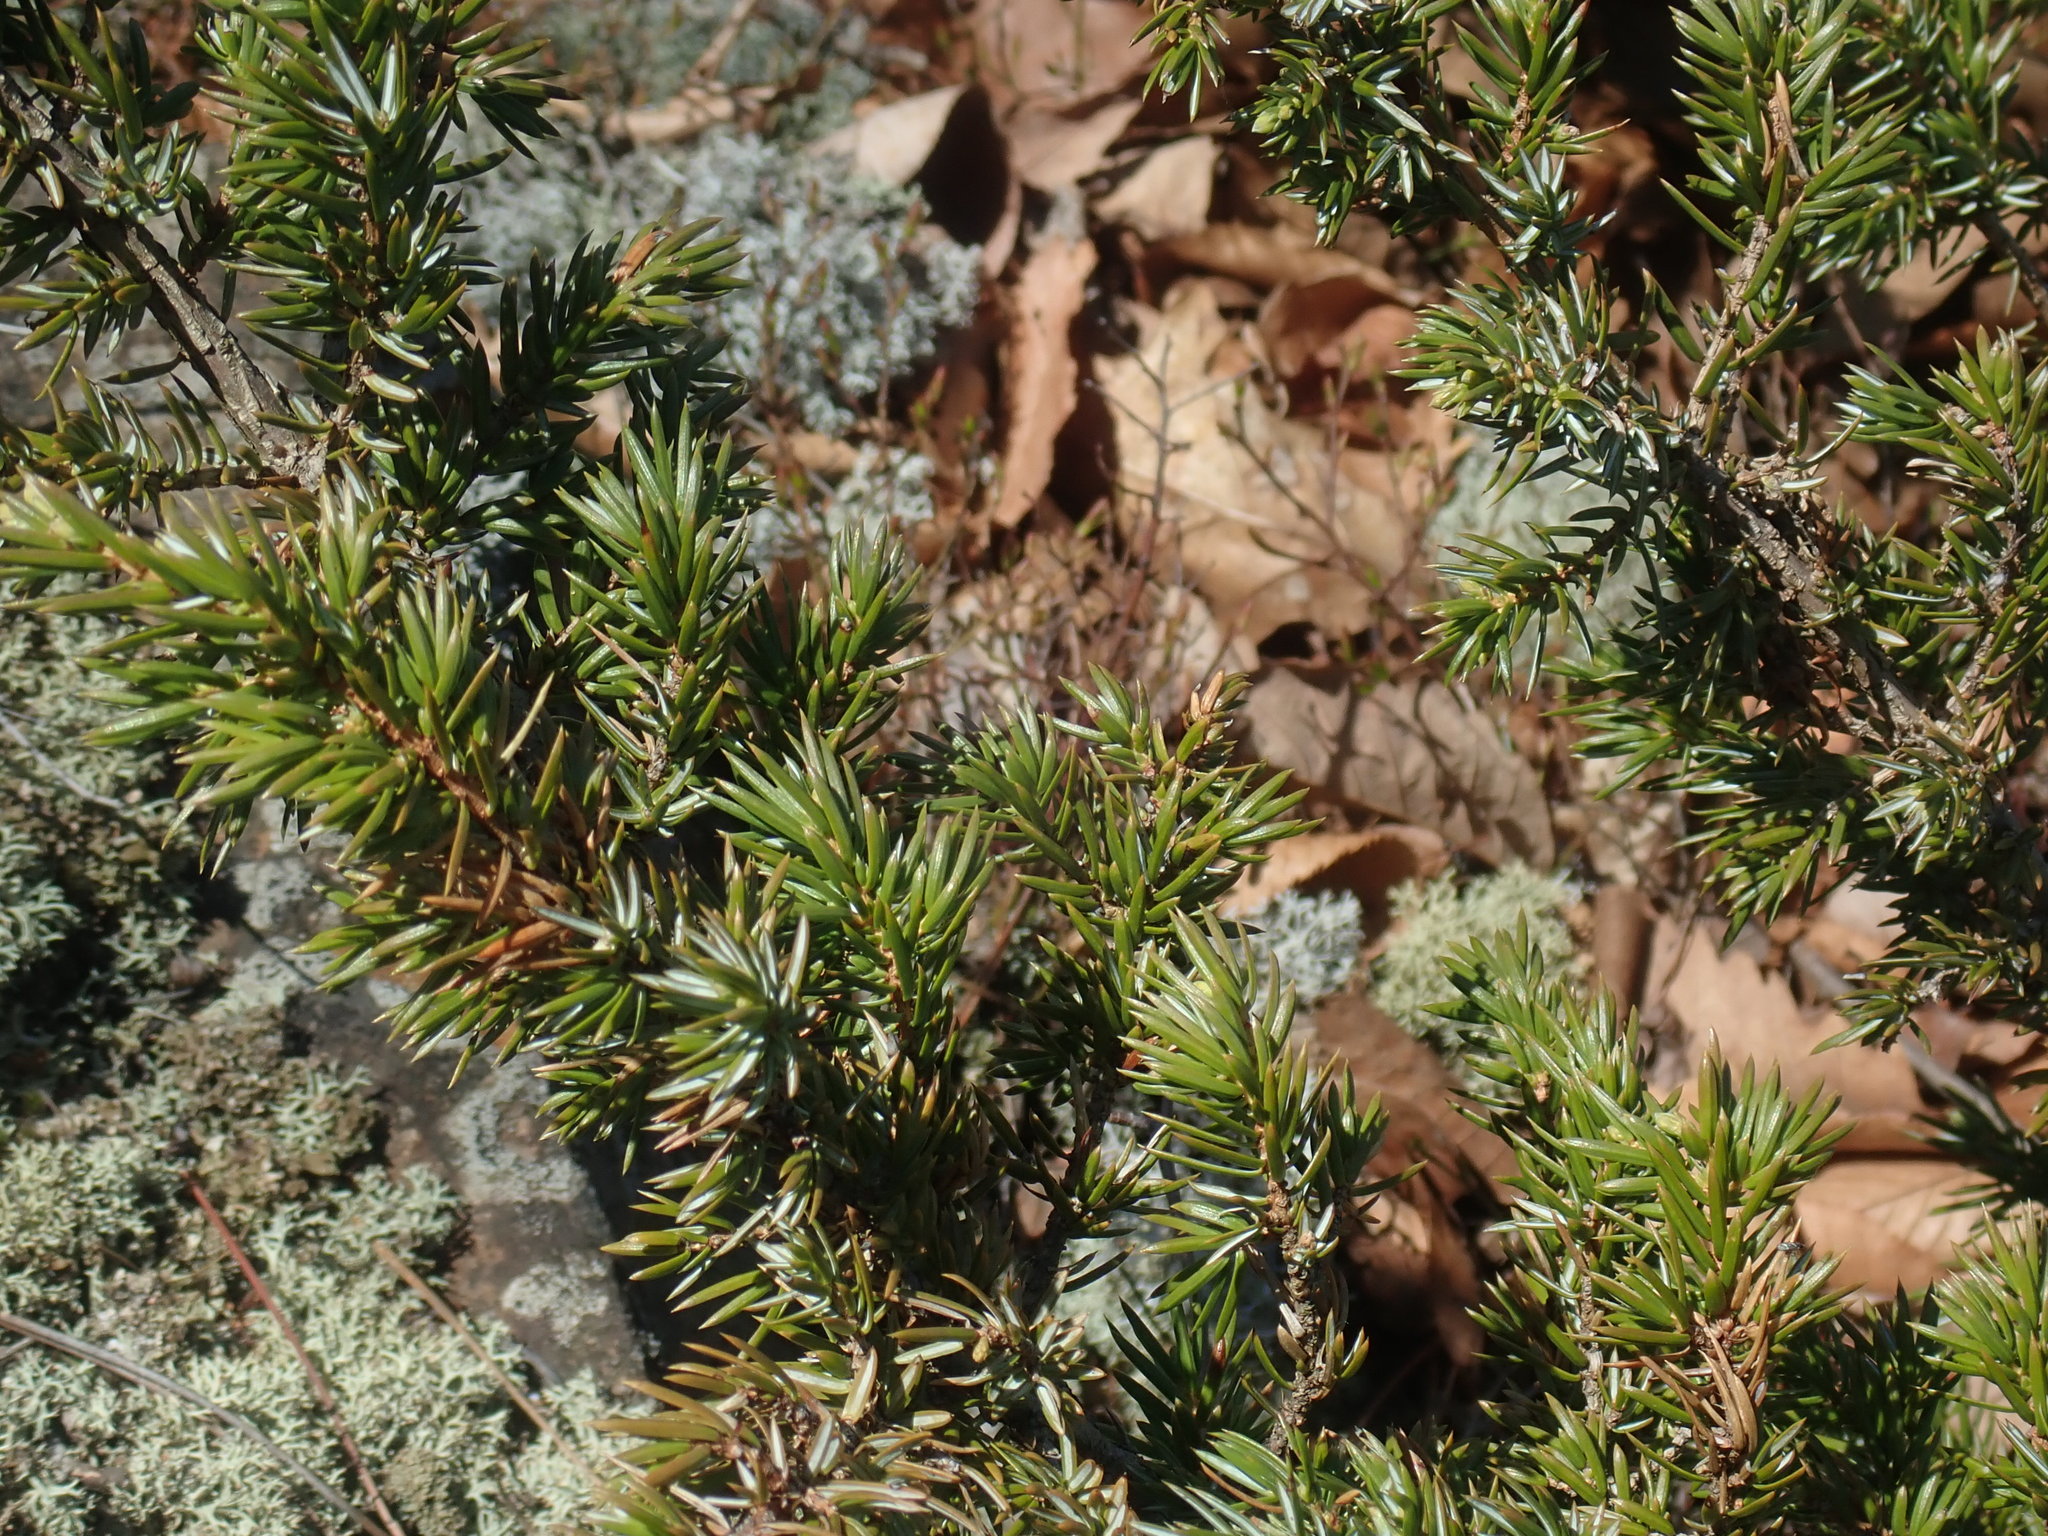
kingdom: Plantae
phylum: Tracheophyta
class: Pinopsida
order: Pinales
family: Cupressaceae
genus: Juniperus
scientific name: Juniperus communis
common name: Common juniper
